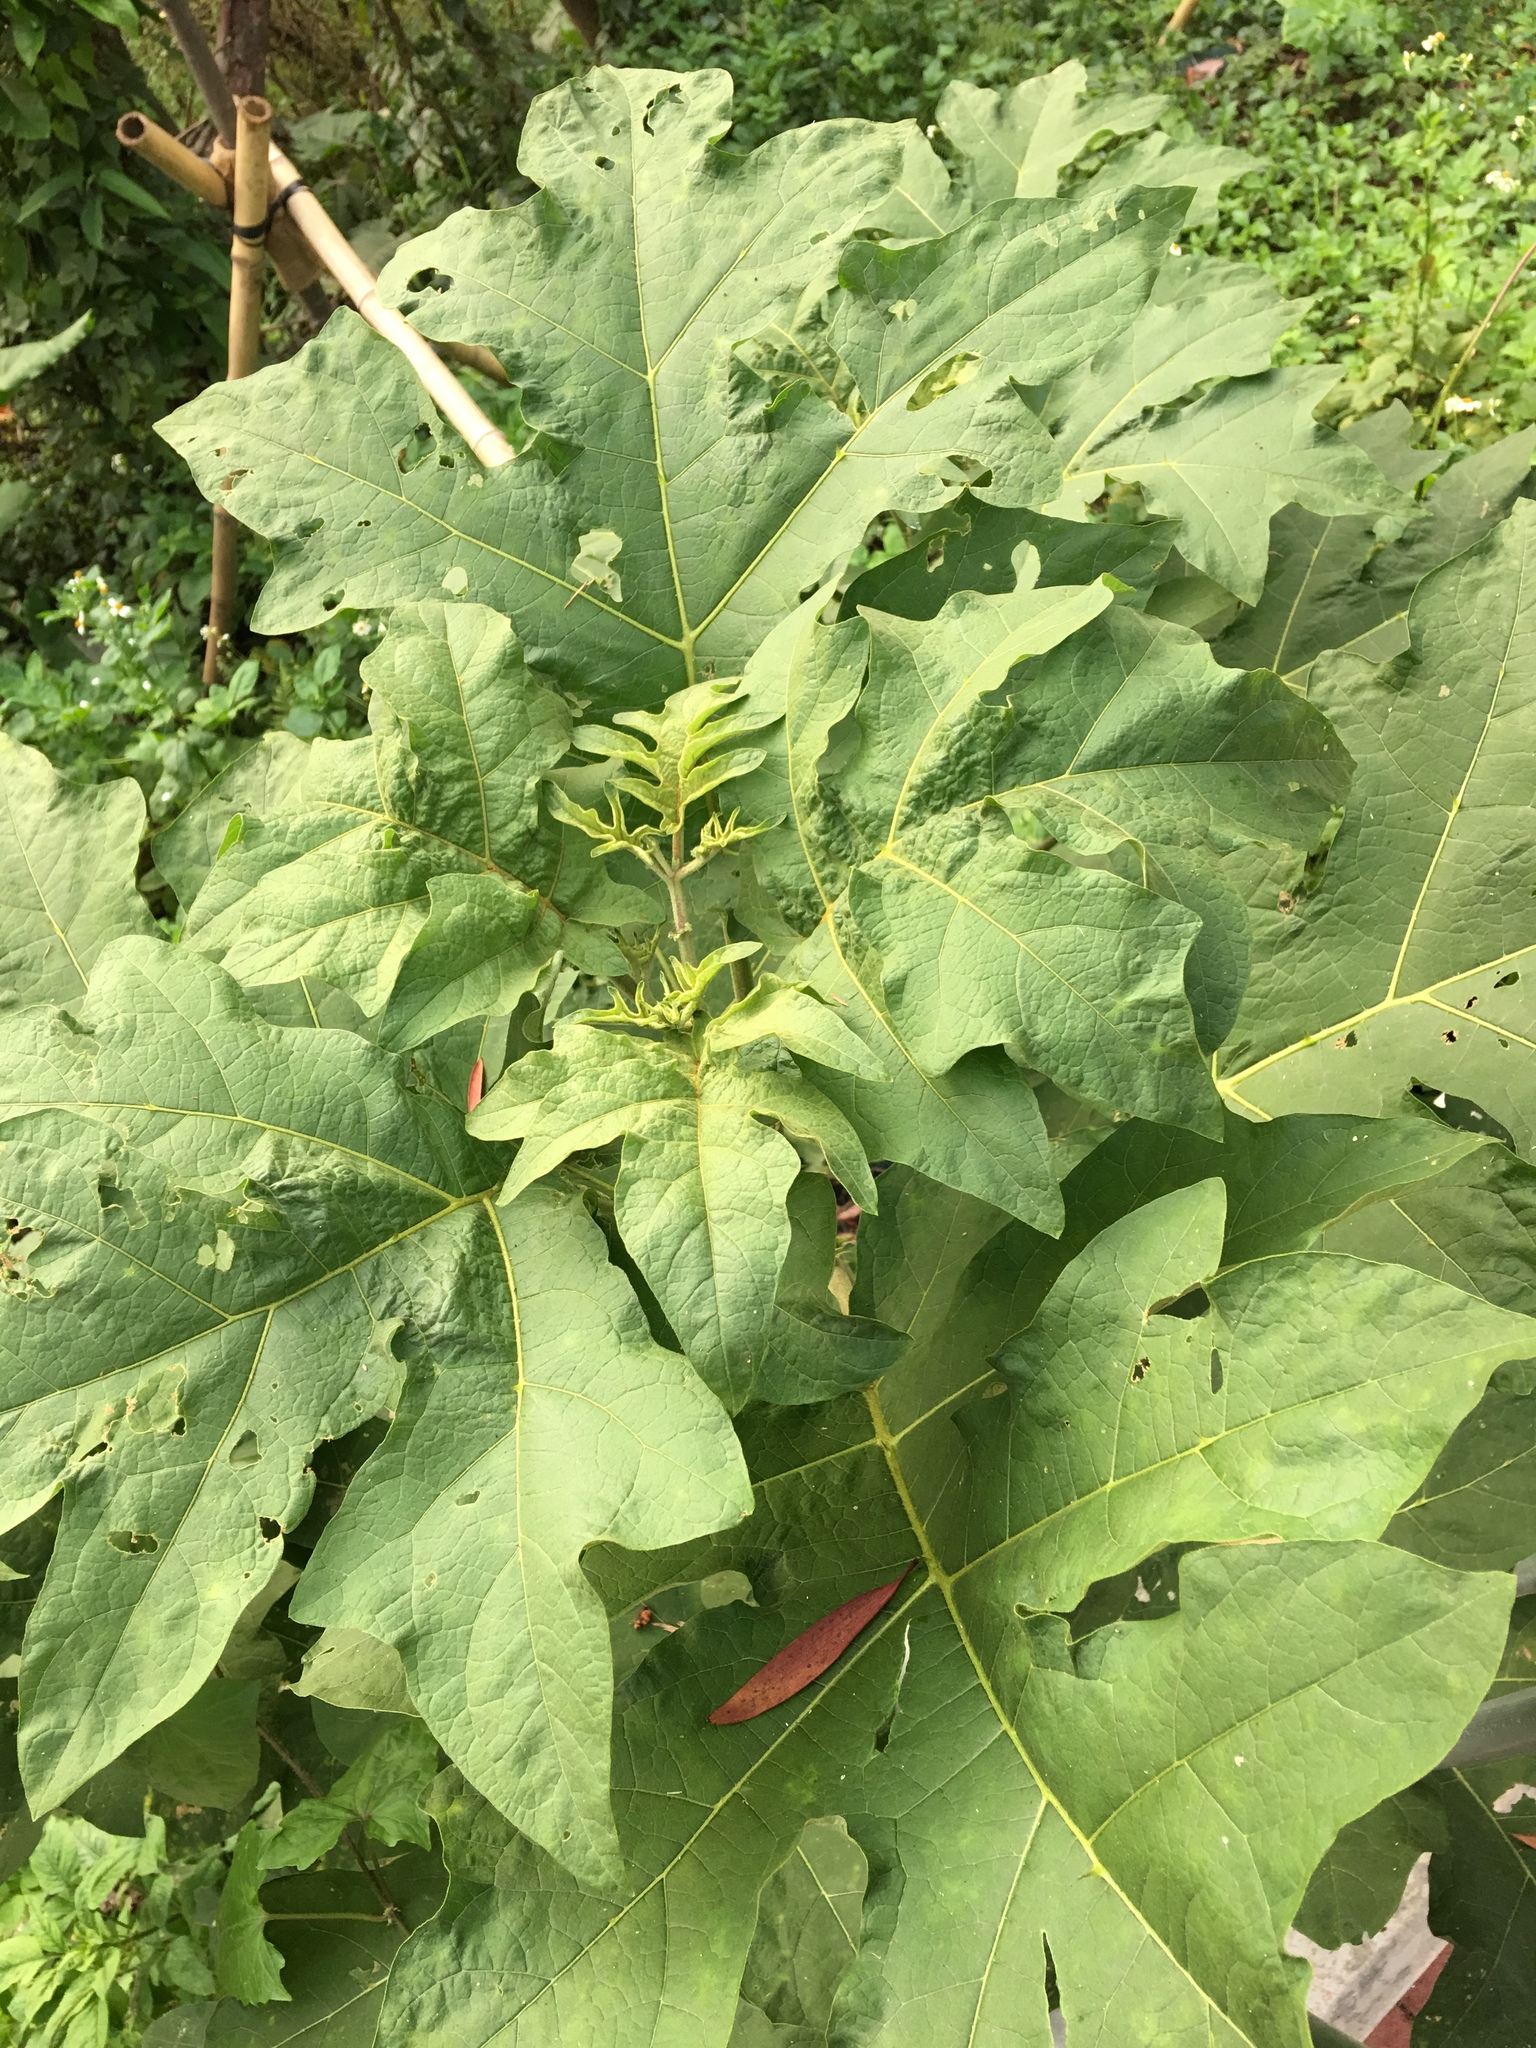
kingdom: Plantae
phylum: Tracheophyta
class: Magnoliopsida
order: Solanales
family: Solanaceae
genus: Solanum
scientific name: Solanum torvum
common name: Turkey berry
